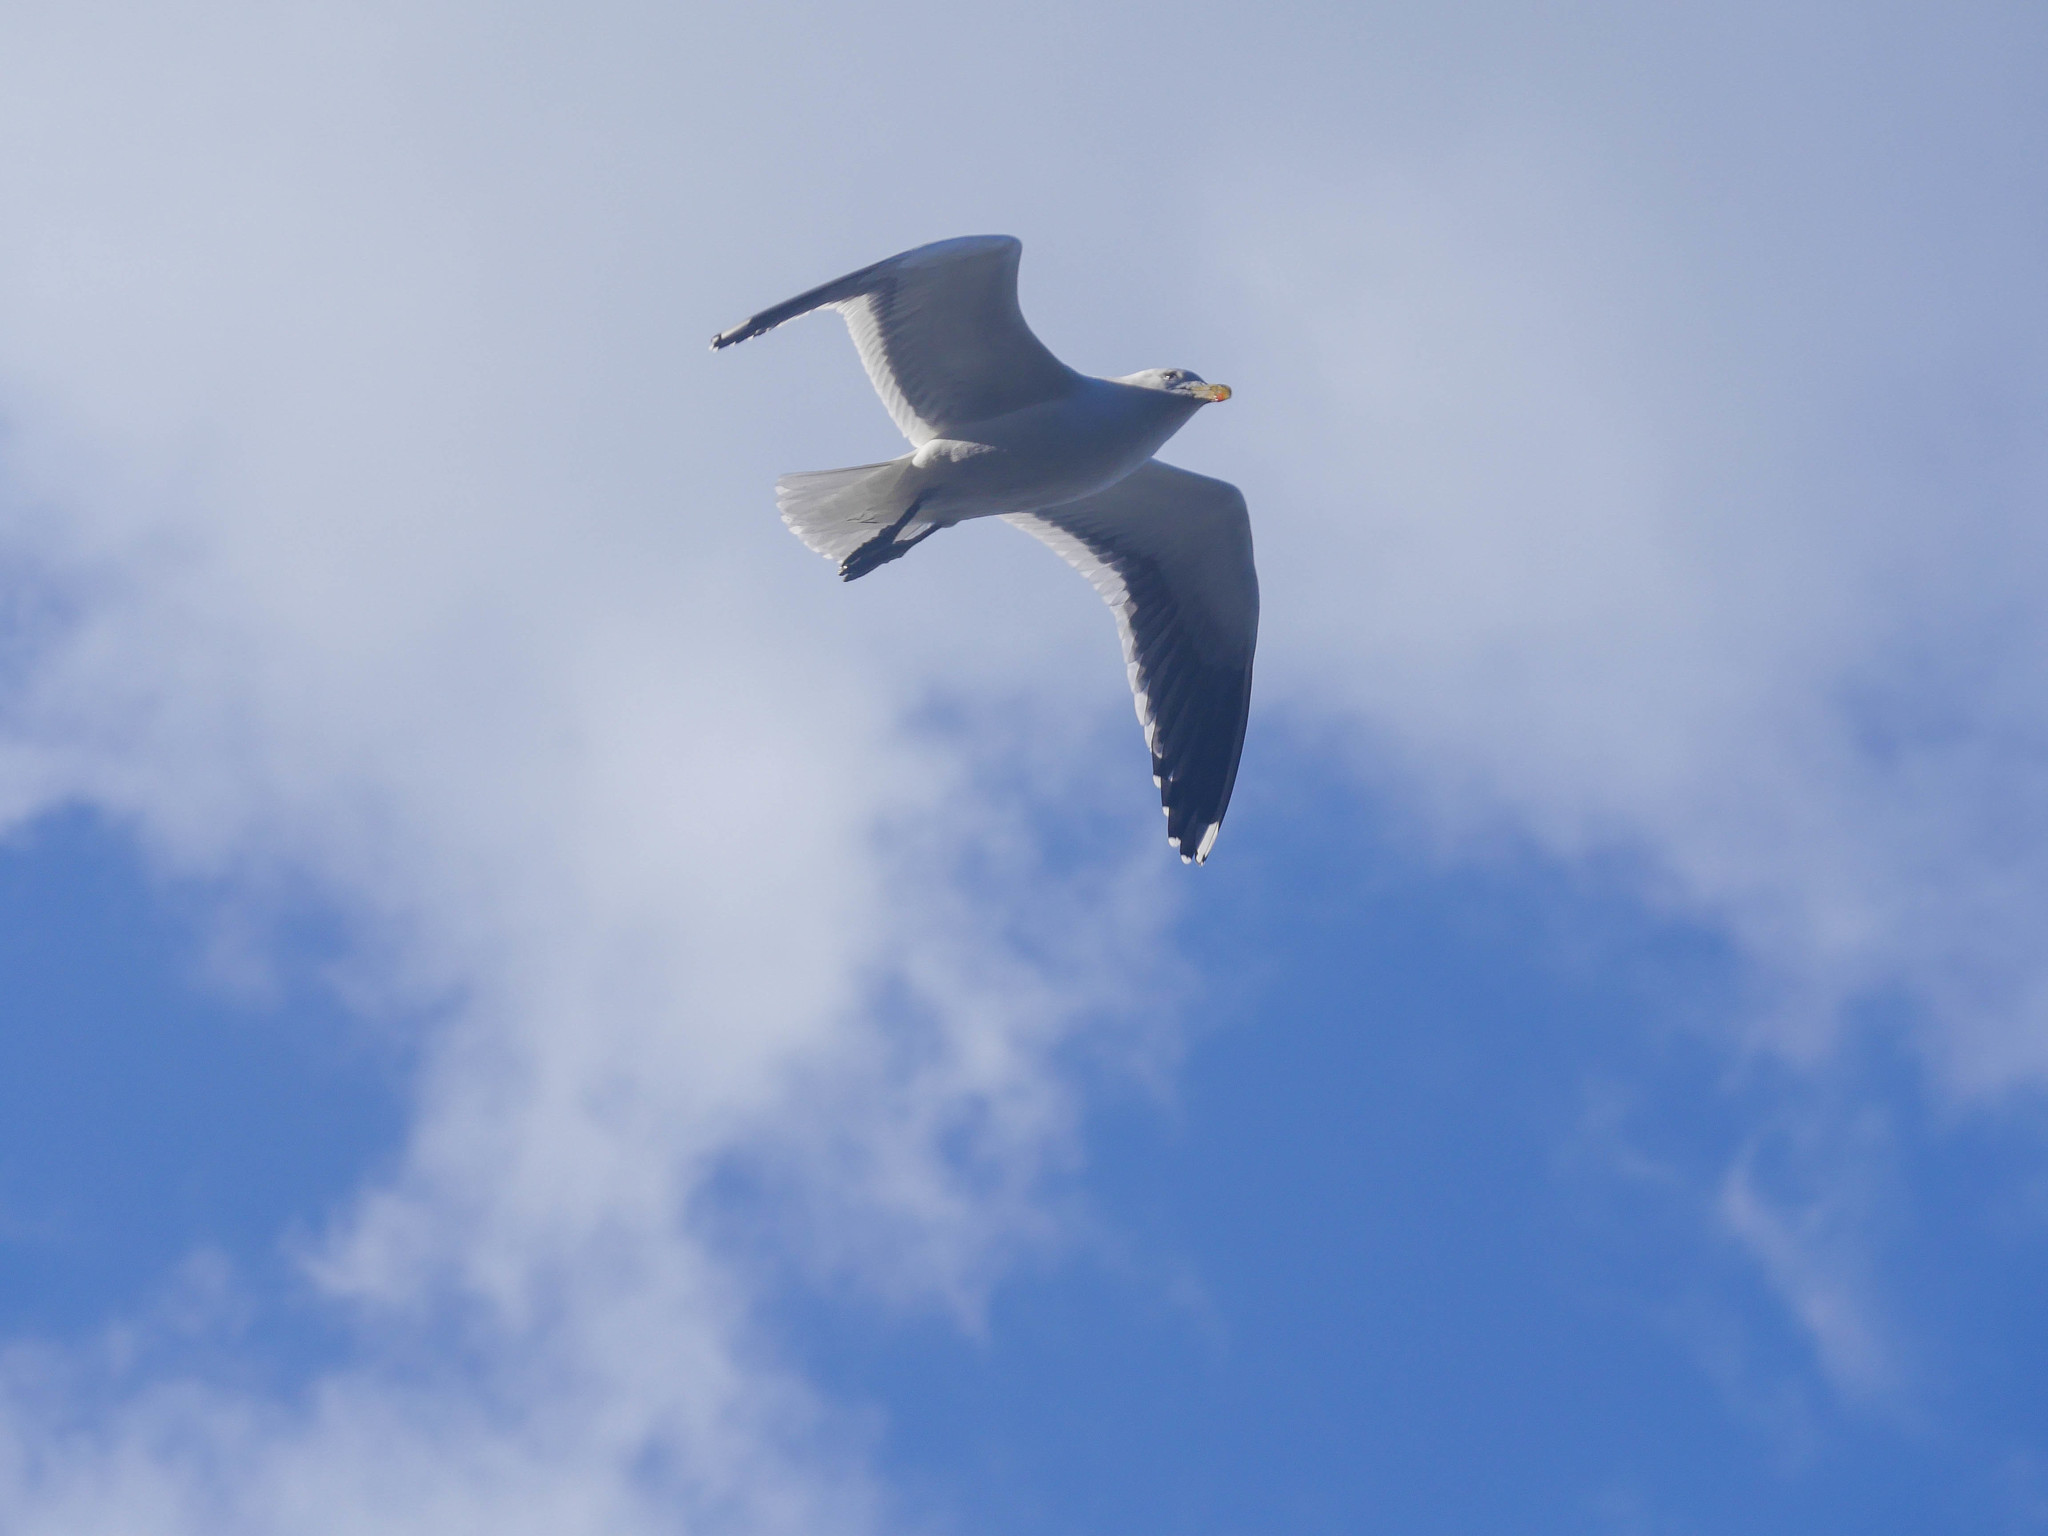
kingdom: Animalia
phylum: Chordata
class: Aves
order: Charadriiformes
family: Laridae
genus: Larus
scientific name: Larus dominicanus
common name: Kelp gull
